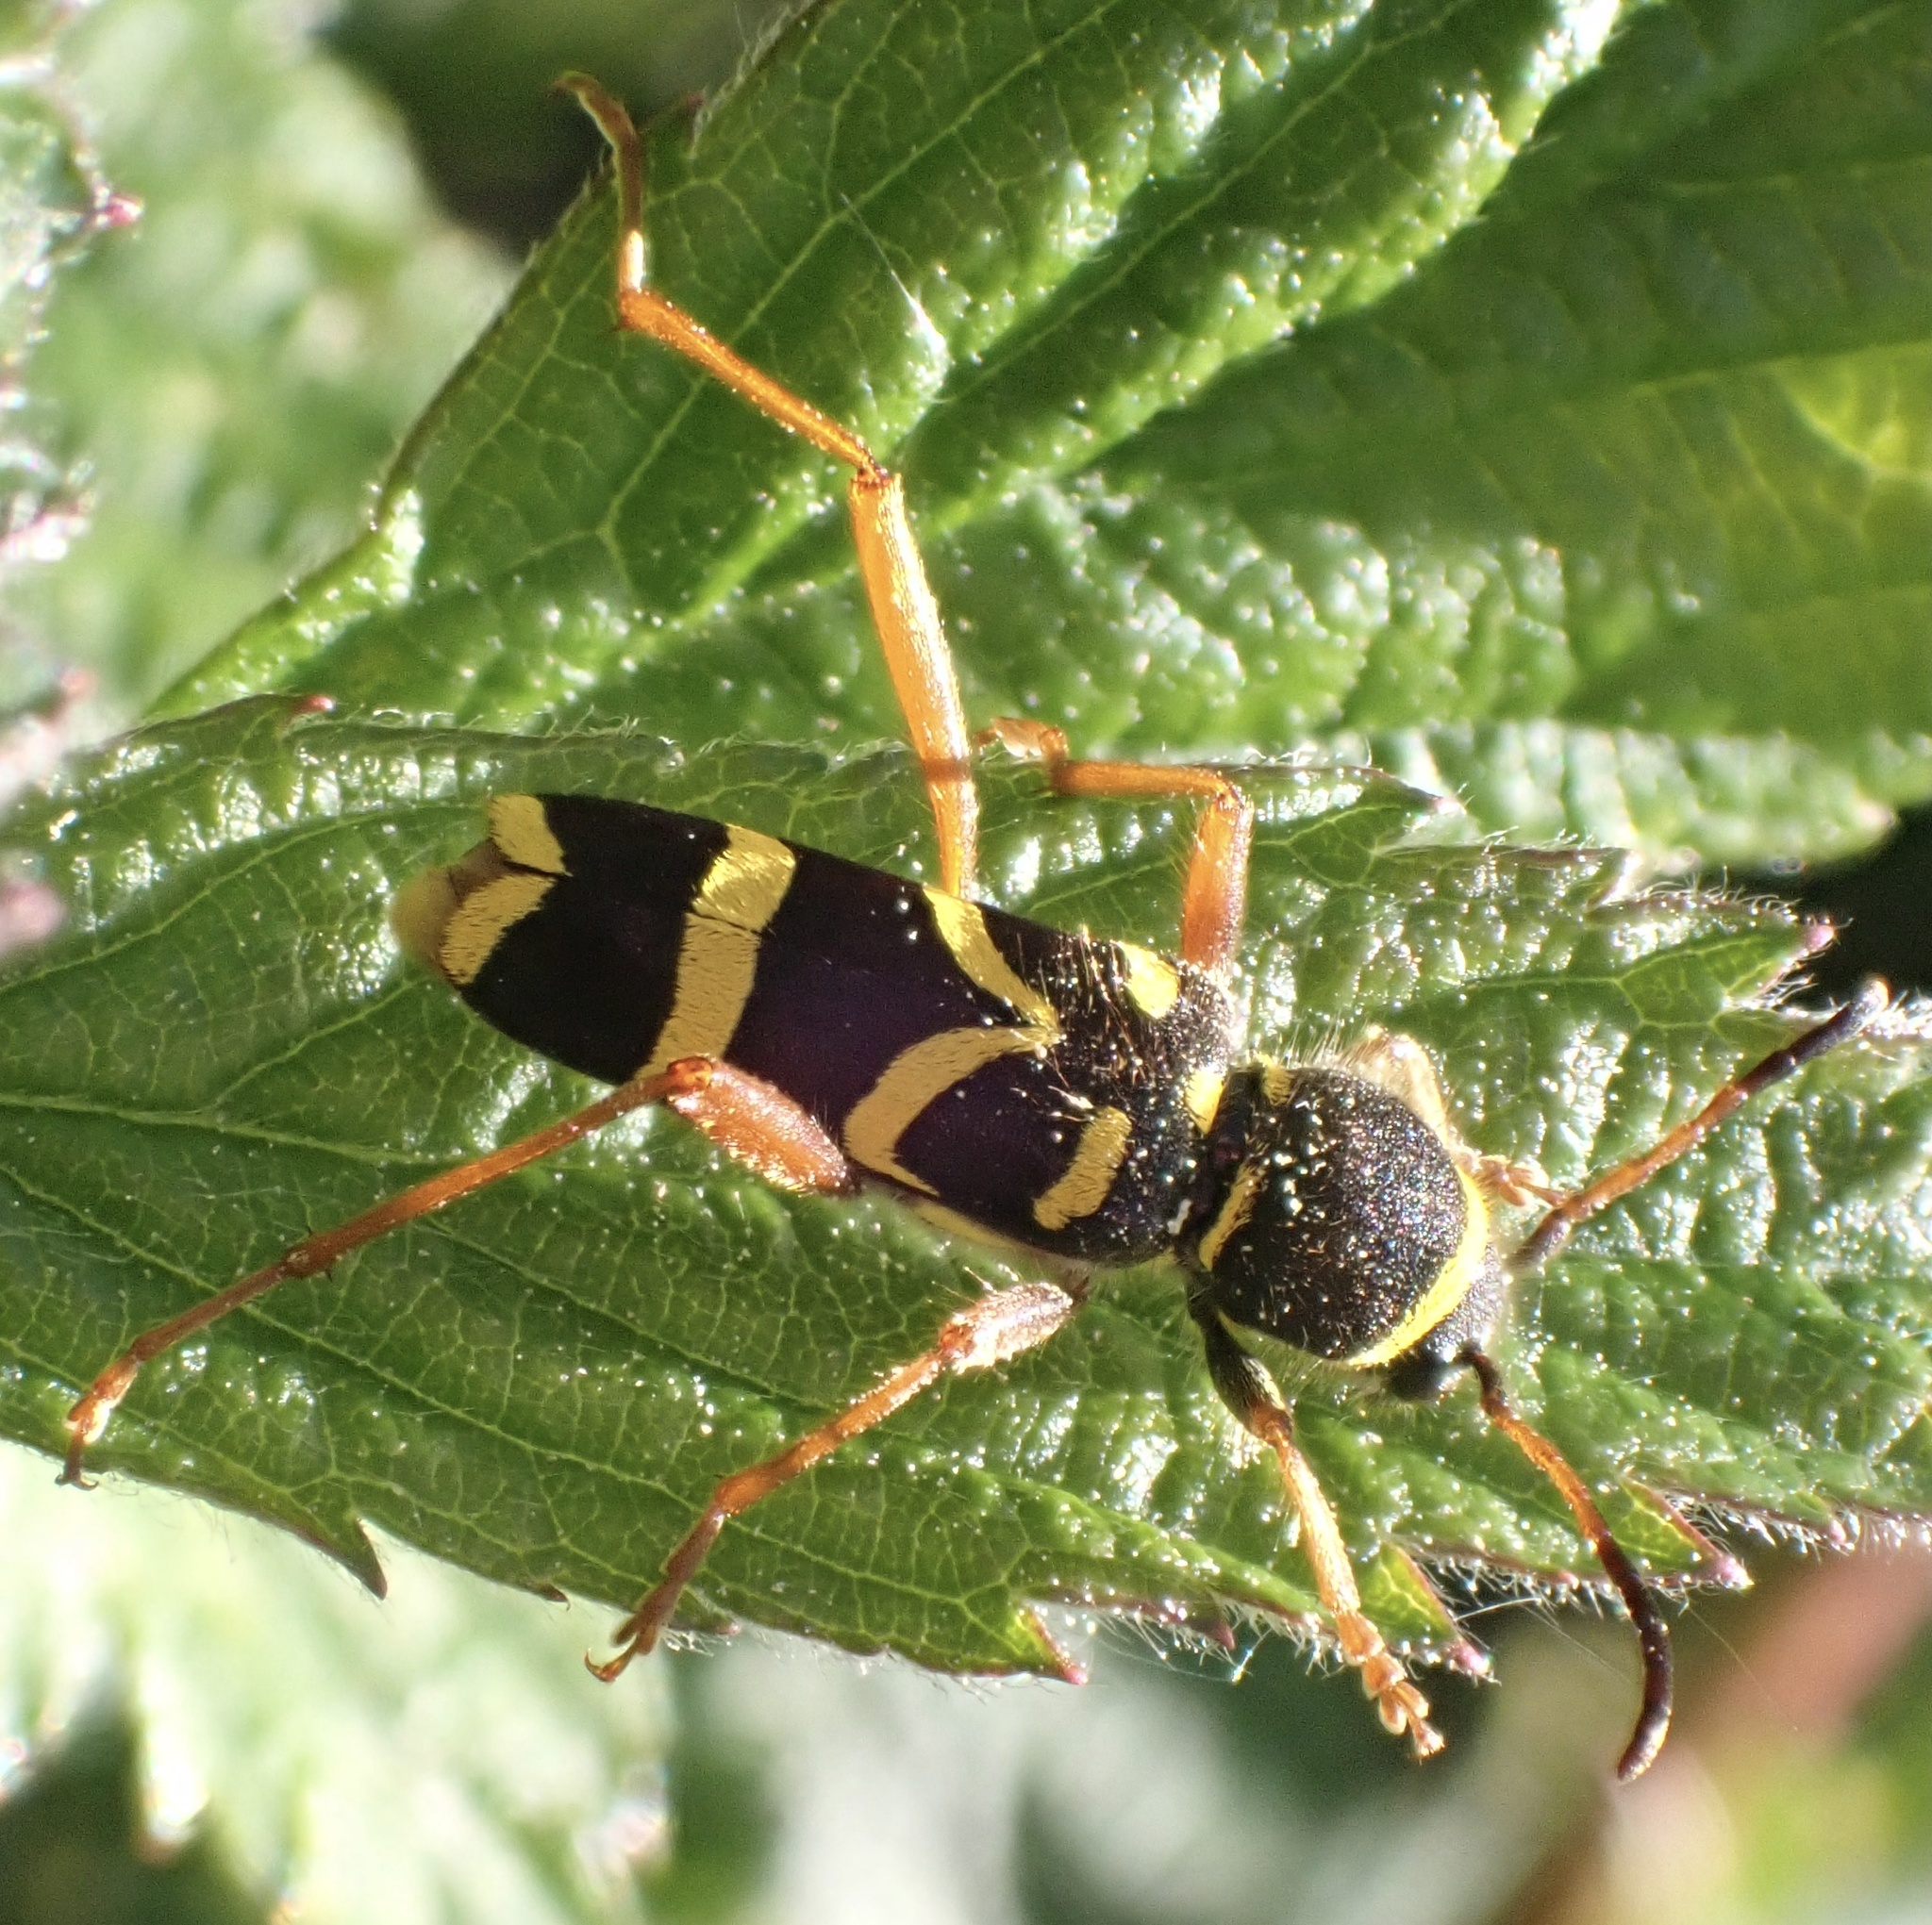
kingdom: Animalia
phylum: Arthropoda
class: Insecta
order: Coleoptera
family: Cerambycidae
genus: Clytus
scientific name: Clytus arietis
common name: Wasp beetle
